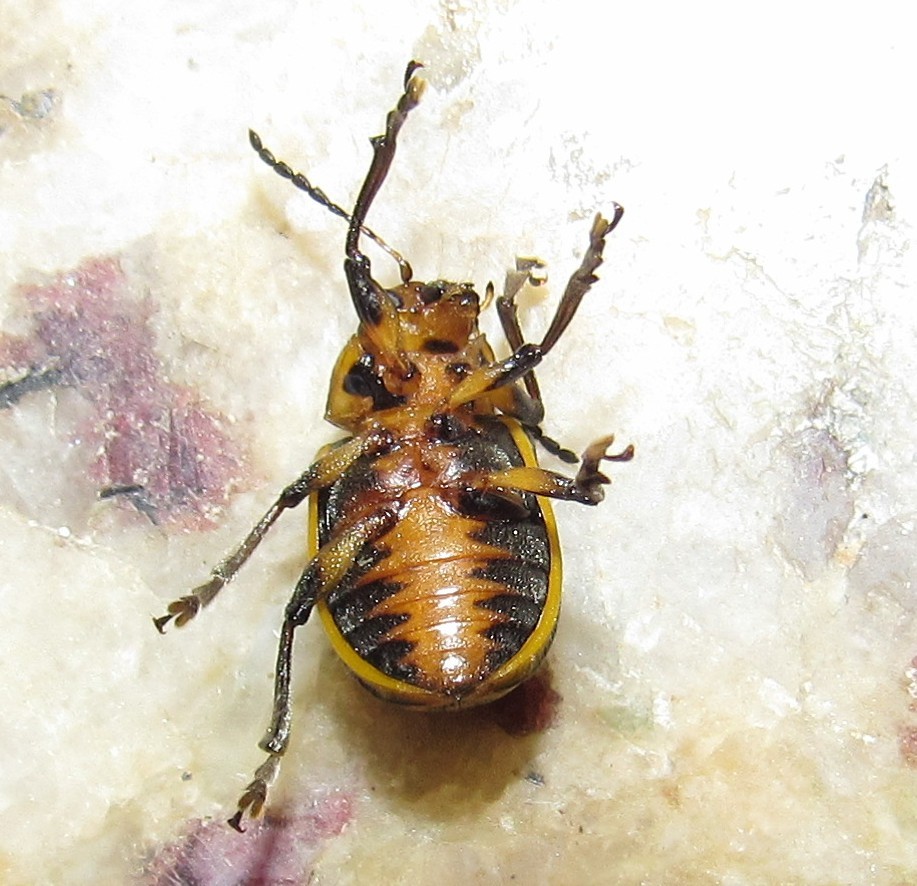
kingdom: Animalia
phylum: Arthropoda
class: Insecta
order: Coleoptera
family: Chrysomelidae
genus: Endocephalus
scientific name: Endocephalus
